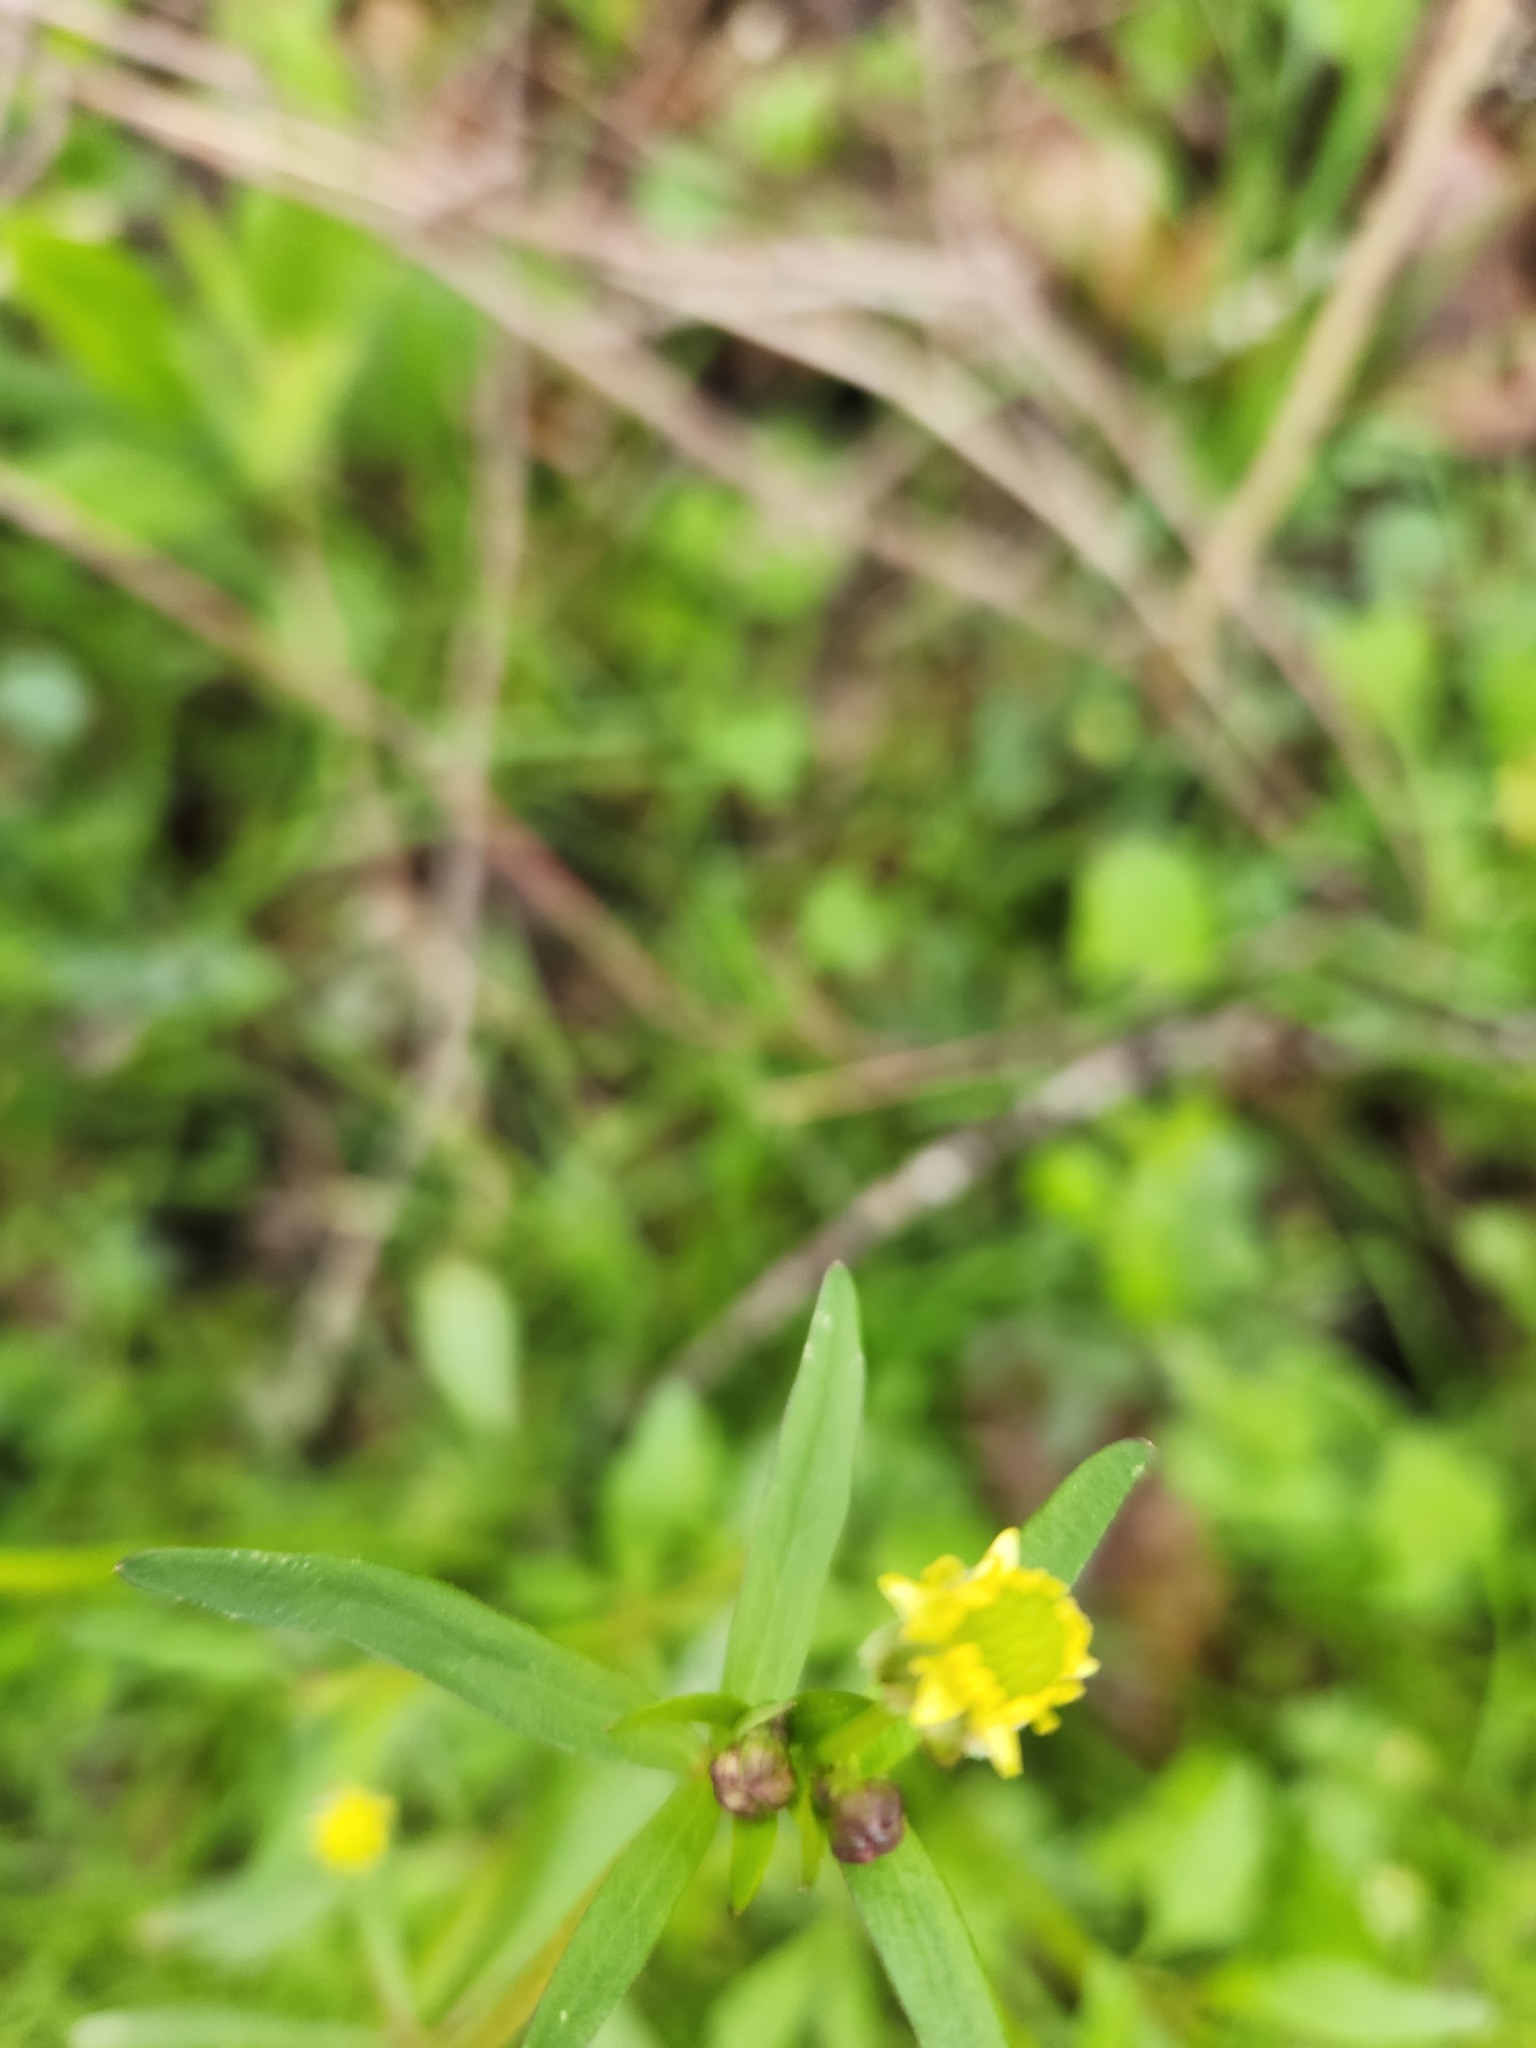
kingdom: Plantae
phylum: Tracheophyta
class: Magnoliopsida
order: Ranunculales
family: Ranunculaceae
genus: Ranunculus
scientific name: Ranunculus abortivus
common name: Early wood buttercup
